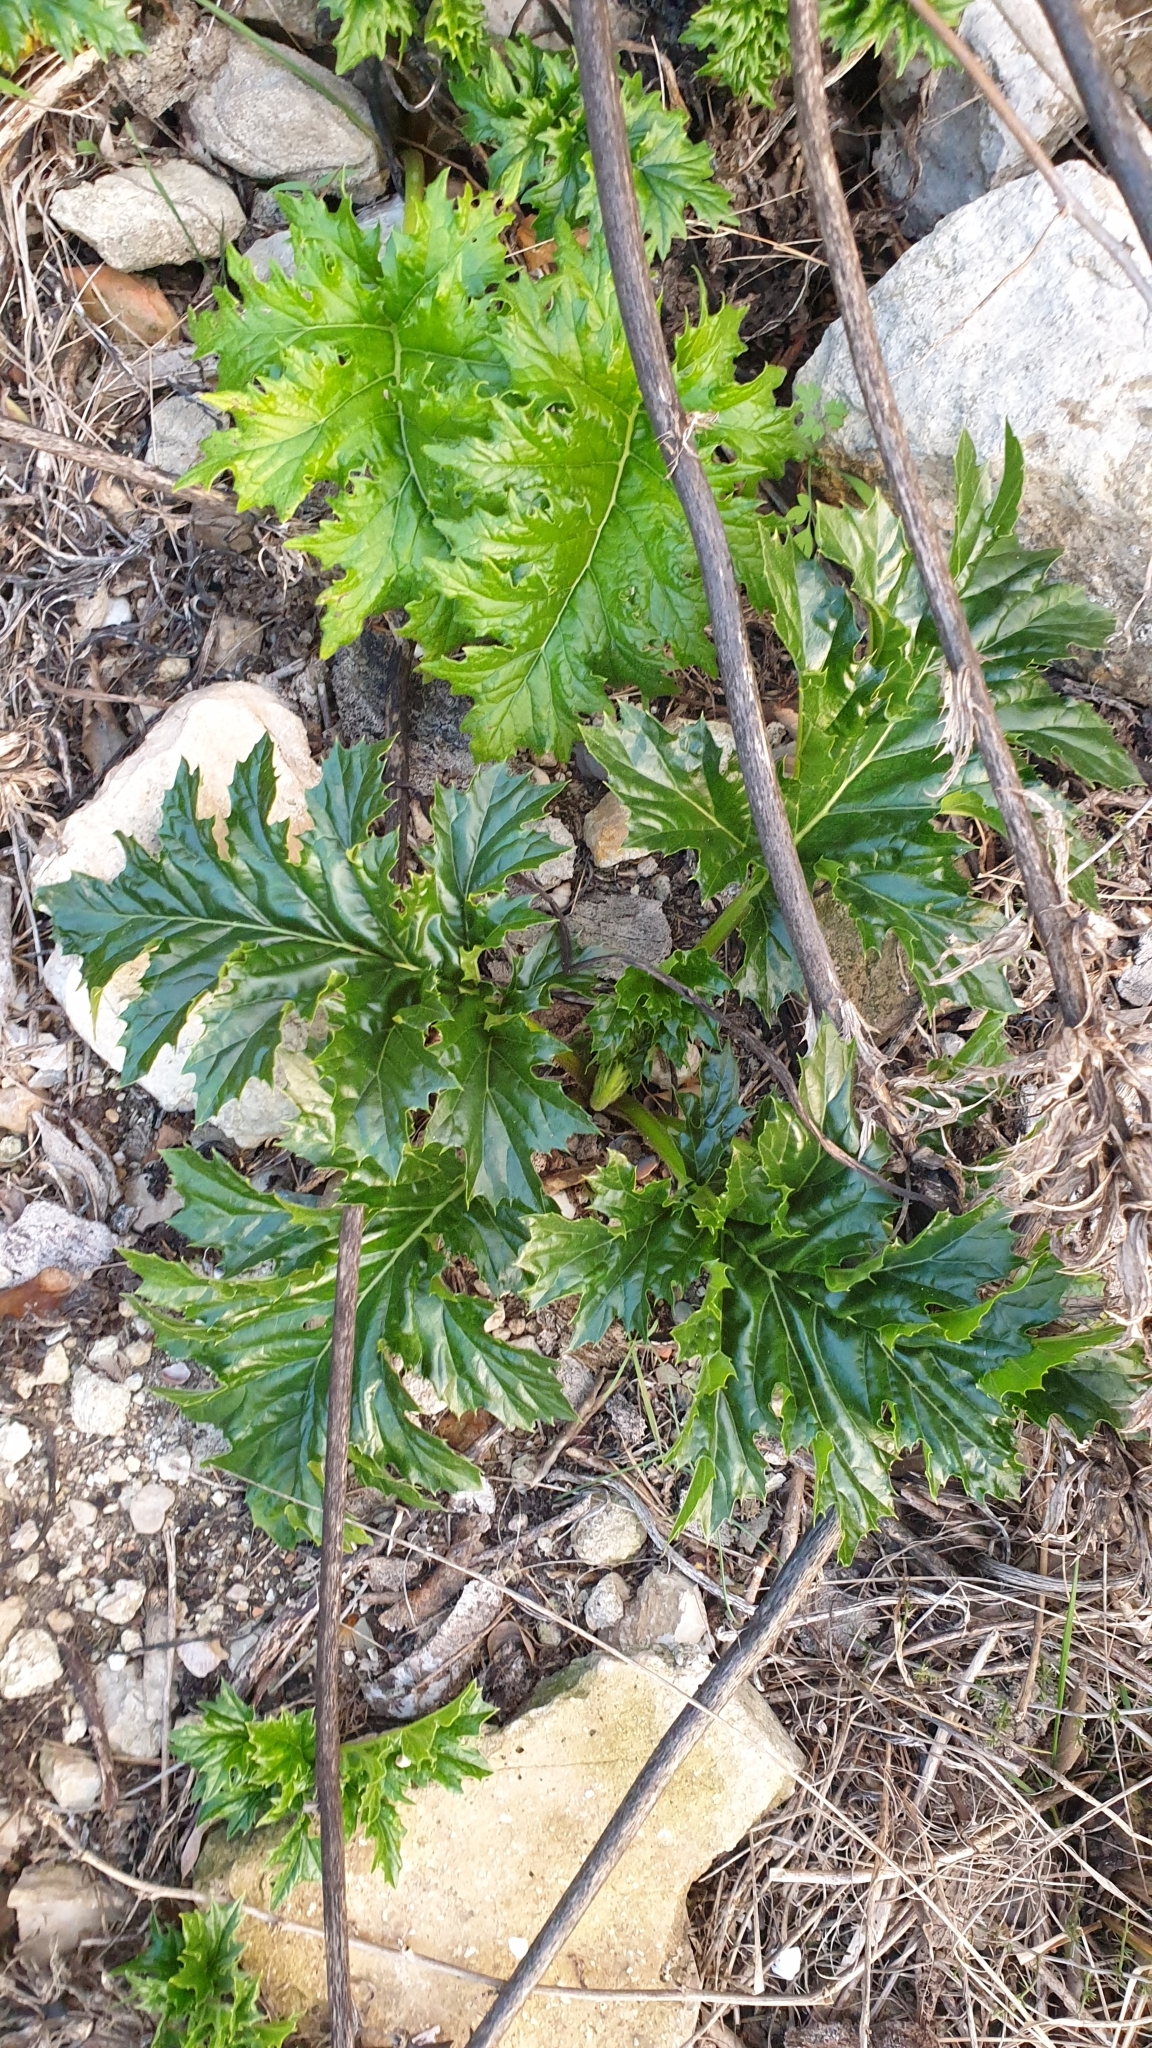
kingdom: Plantae
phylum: Tracheophyta
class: Magnoliopsida
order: Lamiales
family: Acanthaceae
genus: Acanthus
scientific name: Acanthus mollis
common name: Bear's-breech
